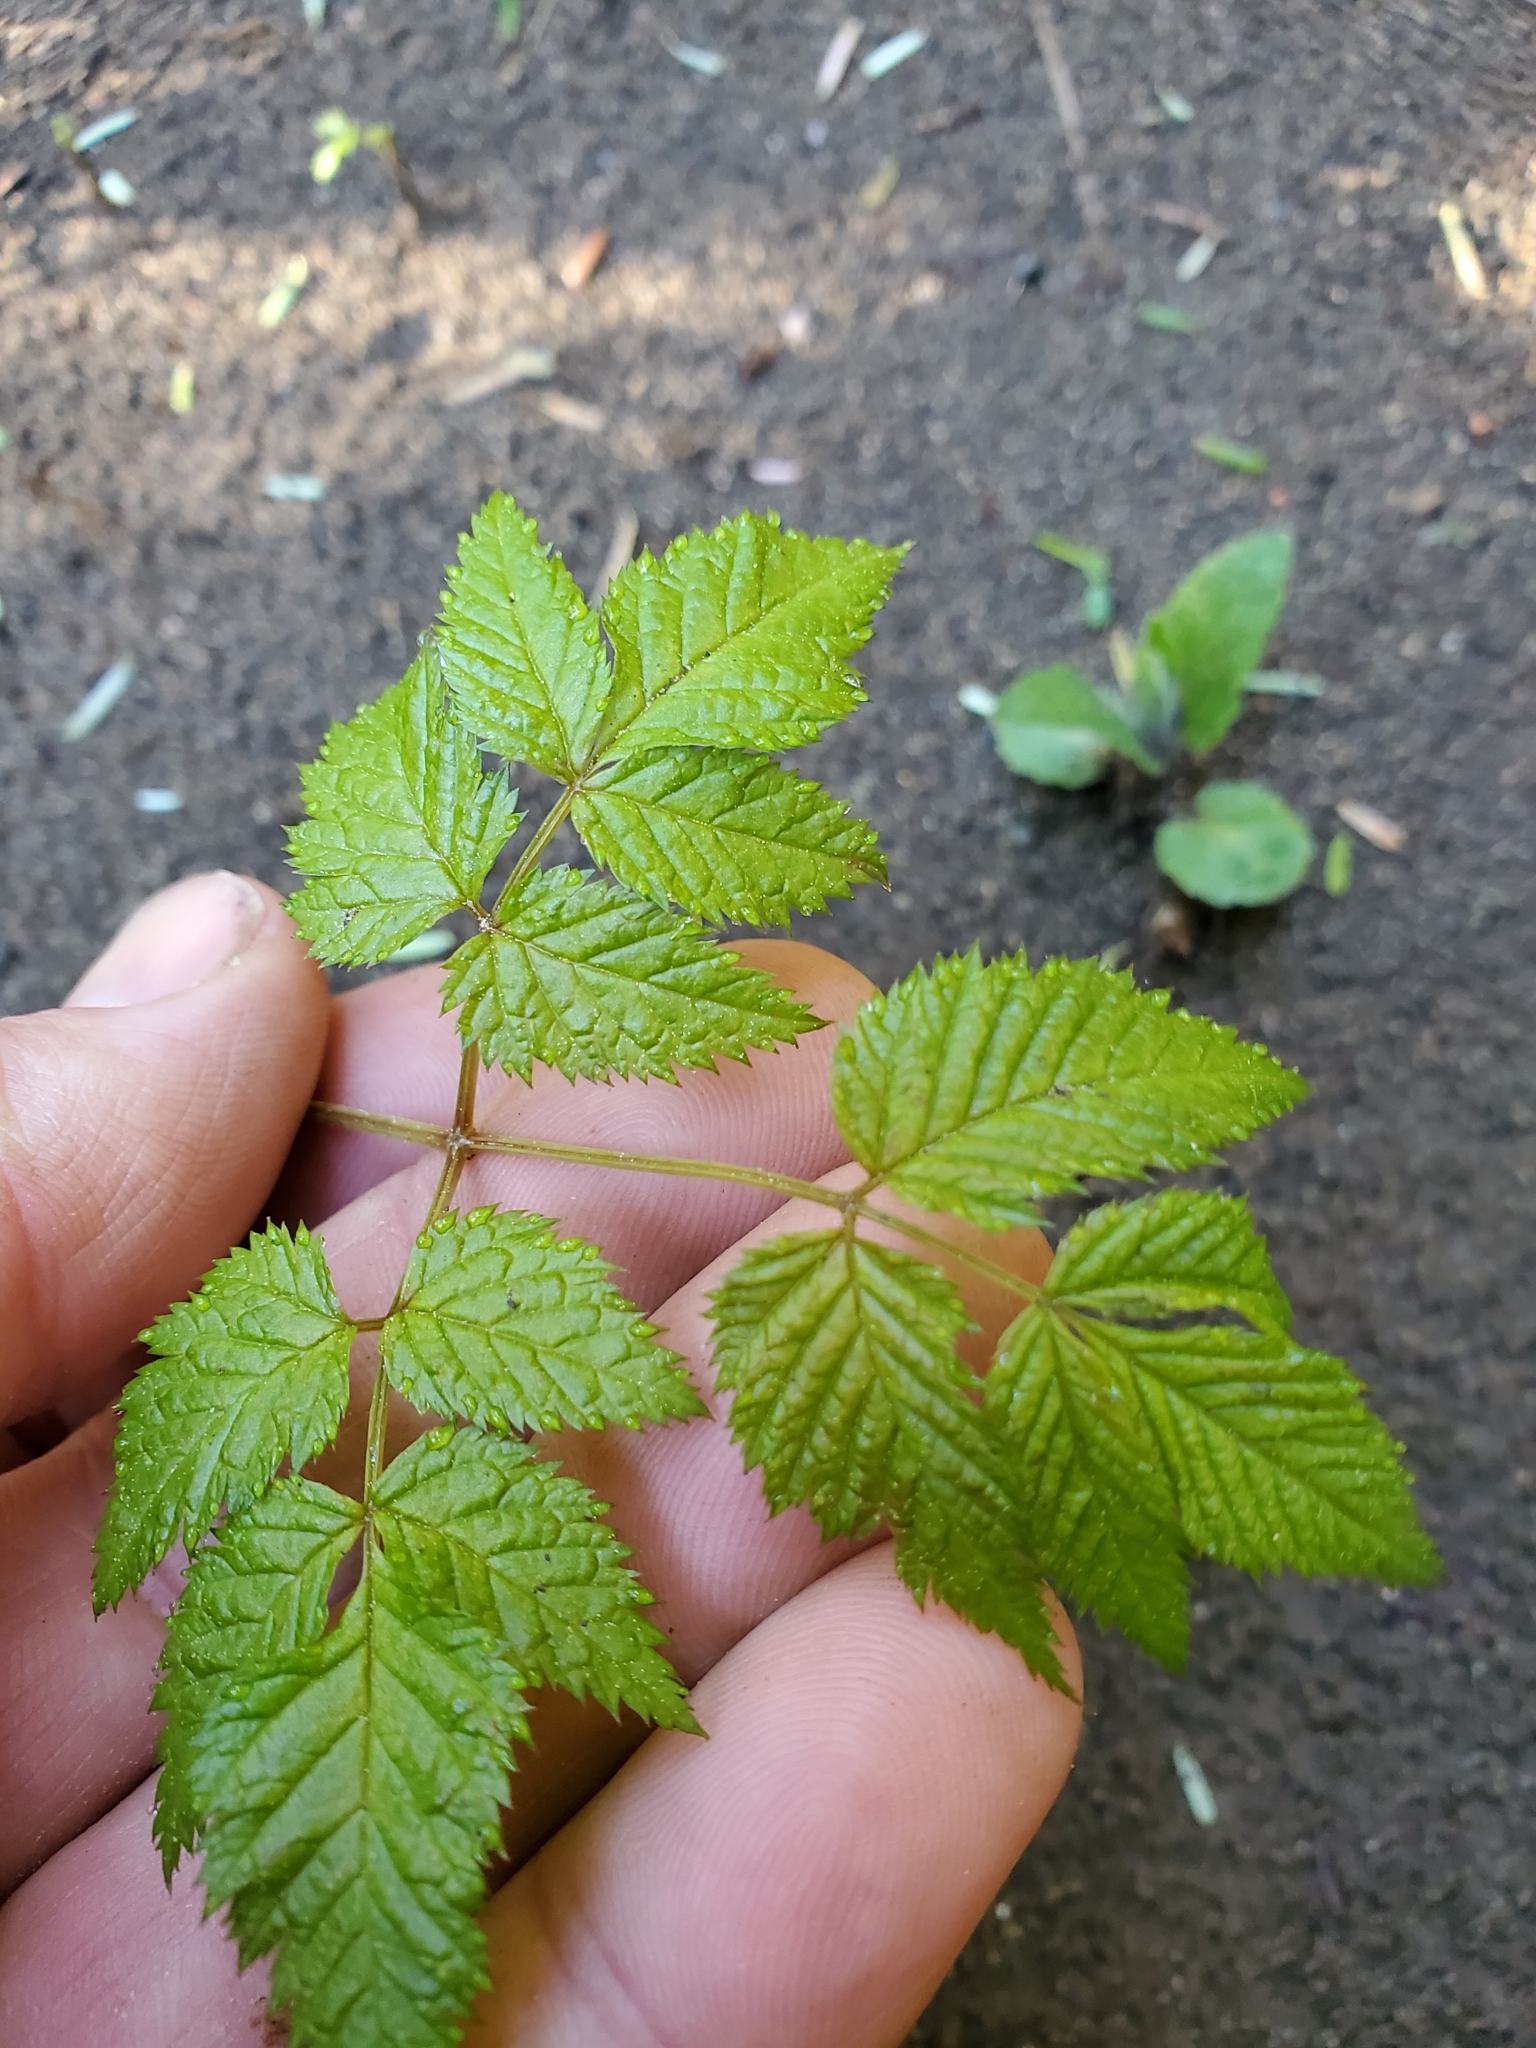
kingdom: Plantae
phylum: Tracheophyta
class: Magnoliopsida
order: Rosales
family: Rosaceae
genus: Aruncus
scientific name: Aruncus dioicus
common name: Buck's-beard
